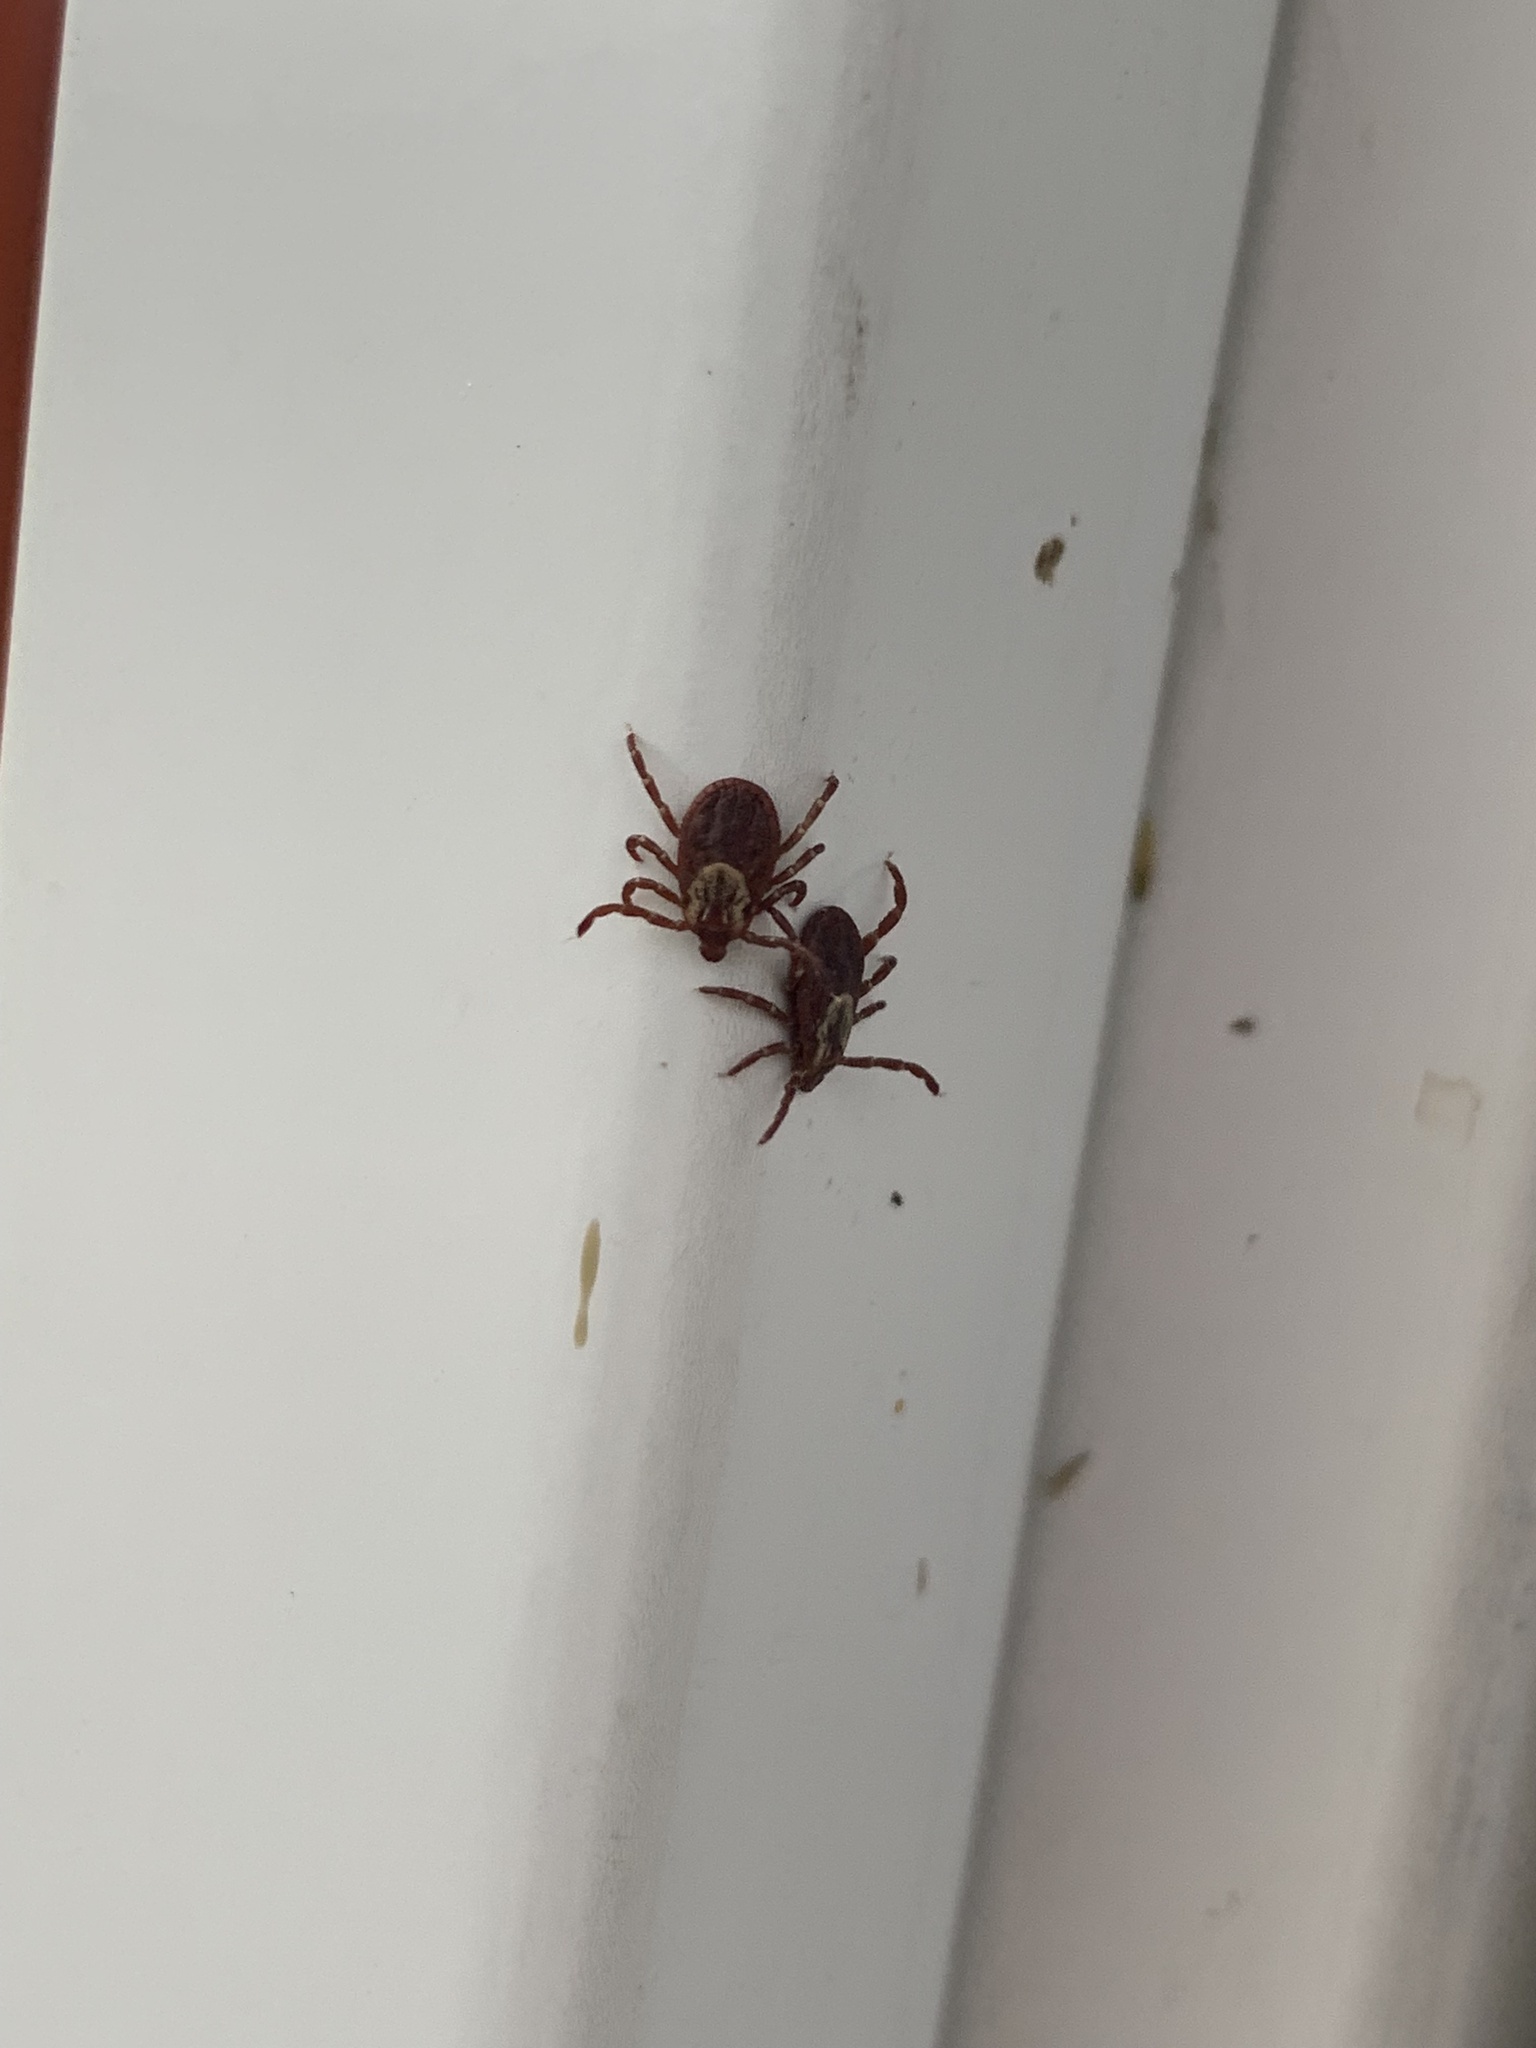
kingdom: Animalia
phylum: Arthropoda
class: Arachnida
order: Ixodida
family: Ixodidae
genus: Dermacentor
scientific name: Dermacentor variabilis
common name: American dog tick
